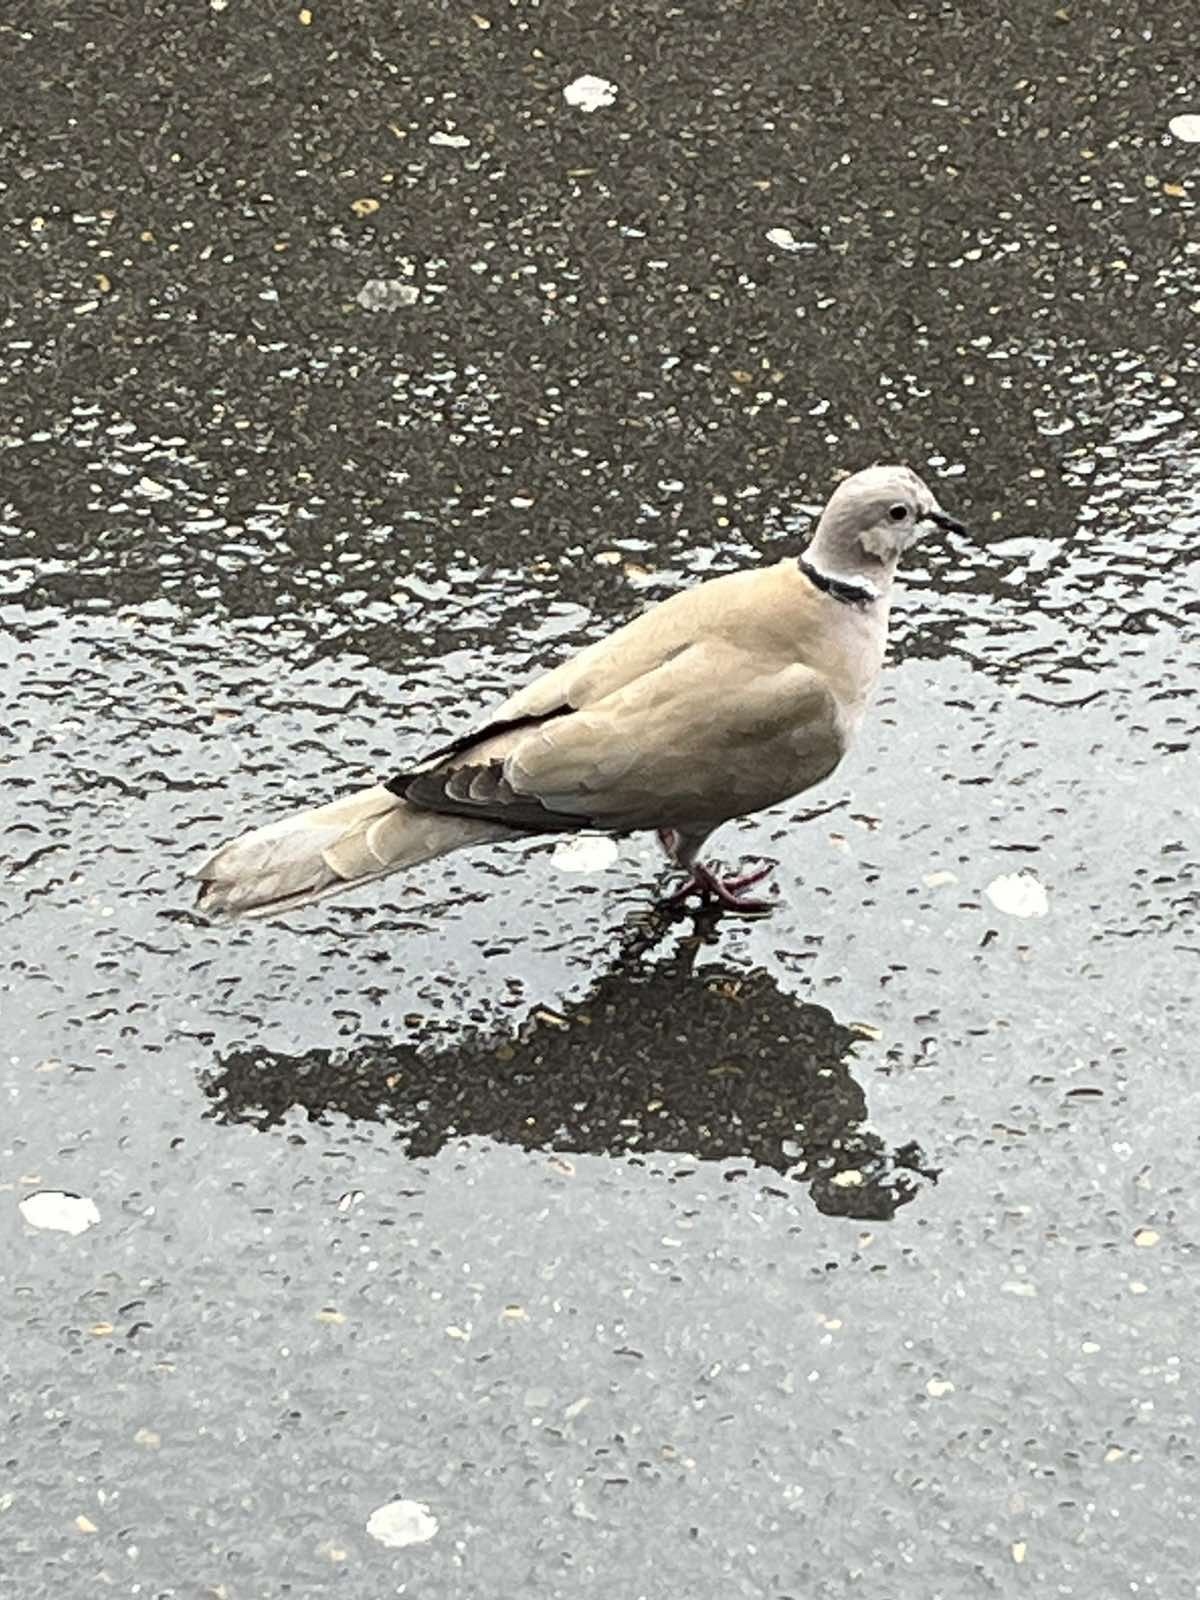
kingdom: Animalia
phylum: Chordata
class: Aves
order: Columbiformes
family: Columbidae
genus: Streptopelia
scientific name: Streptopelia decaocto
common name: Eurasian collared dove
